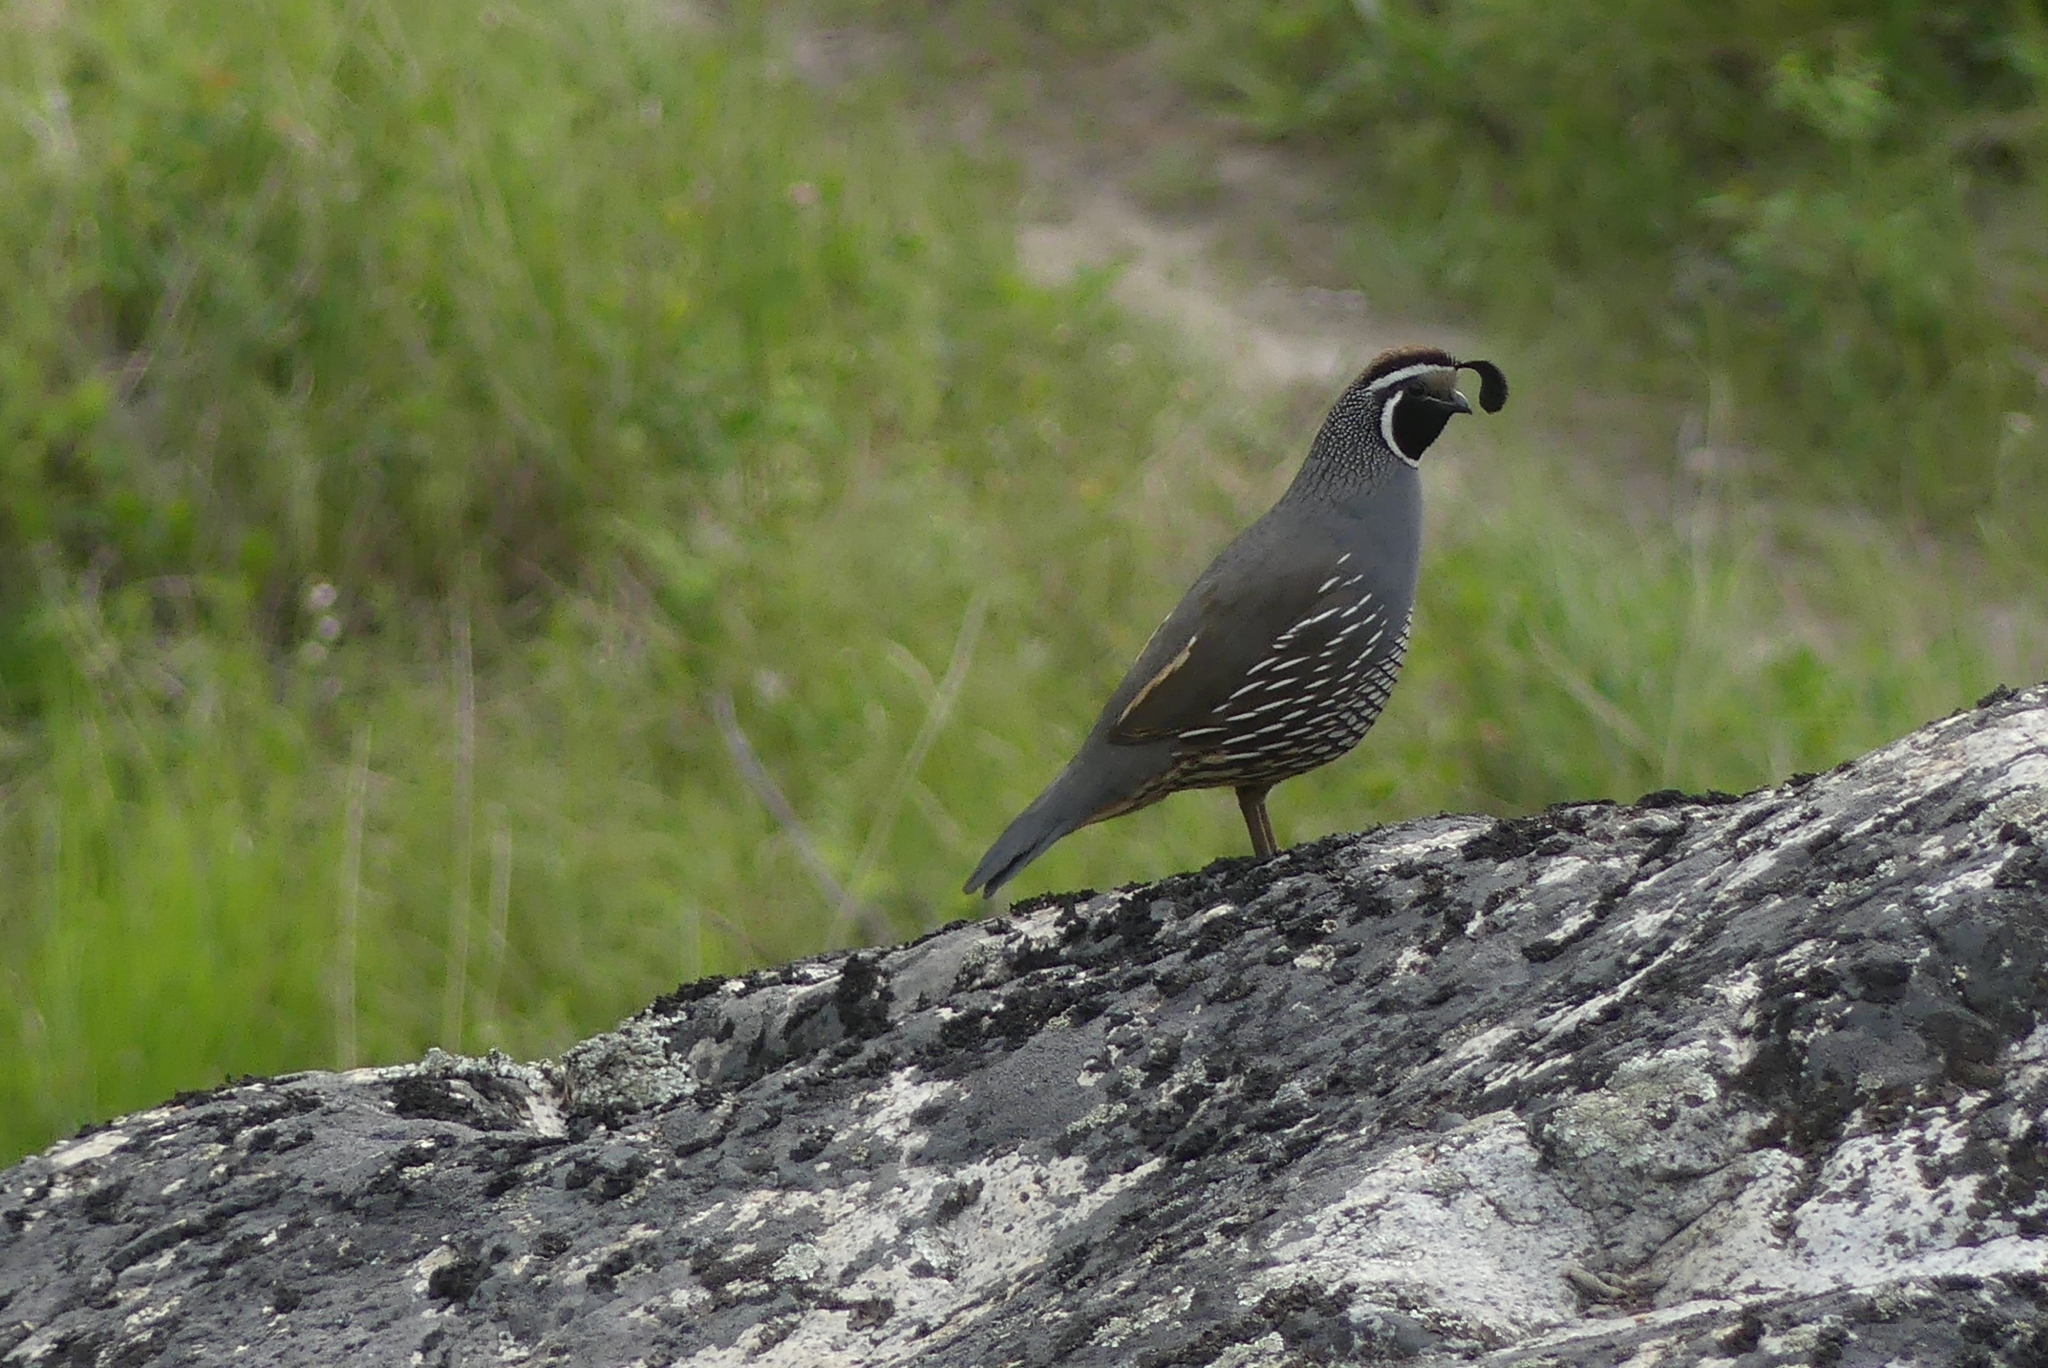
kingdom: Animalia
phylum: Chordata
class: Aves
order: Galliformes
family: Odontophoridae
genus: Callipepla
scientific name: Callipepla californica
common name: California quail
